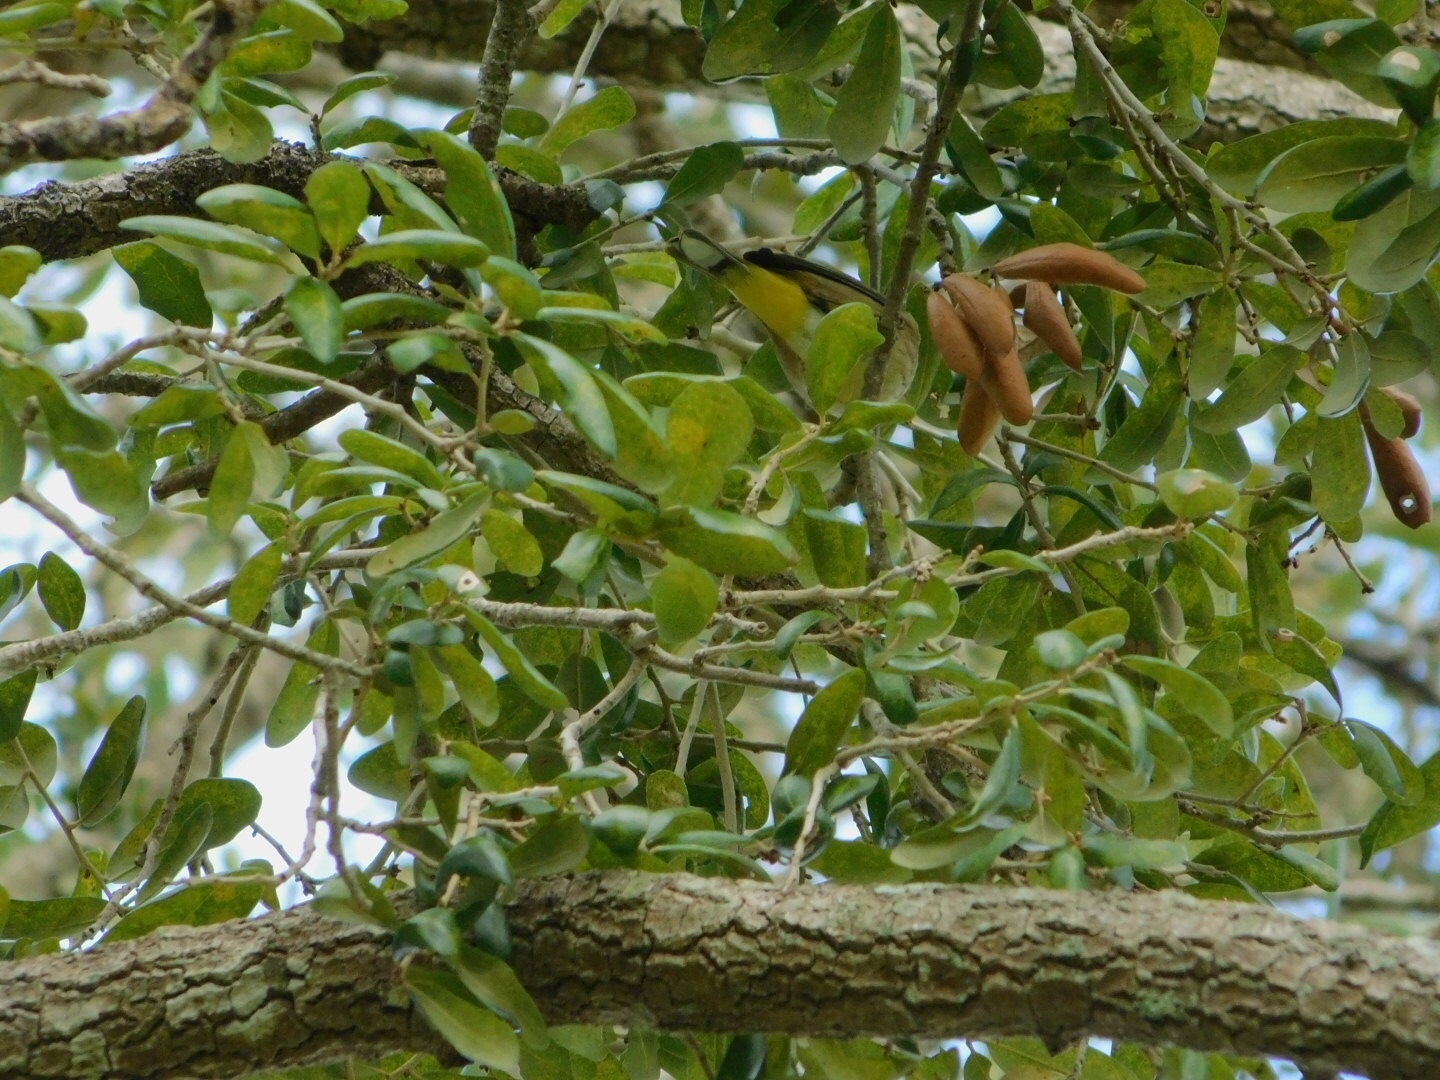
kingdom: Animalia
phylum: Chordata
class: Aves
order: Passeriformes
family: Parulidae
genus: Setophaga
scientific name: Setophaga palmarum
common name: Palm warbler
